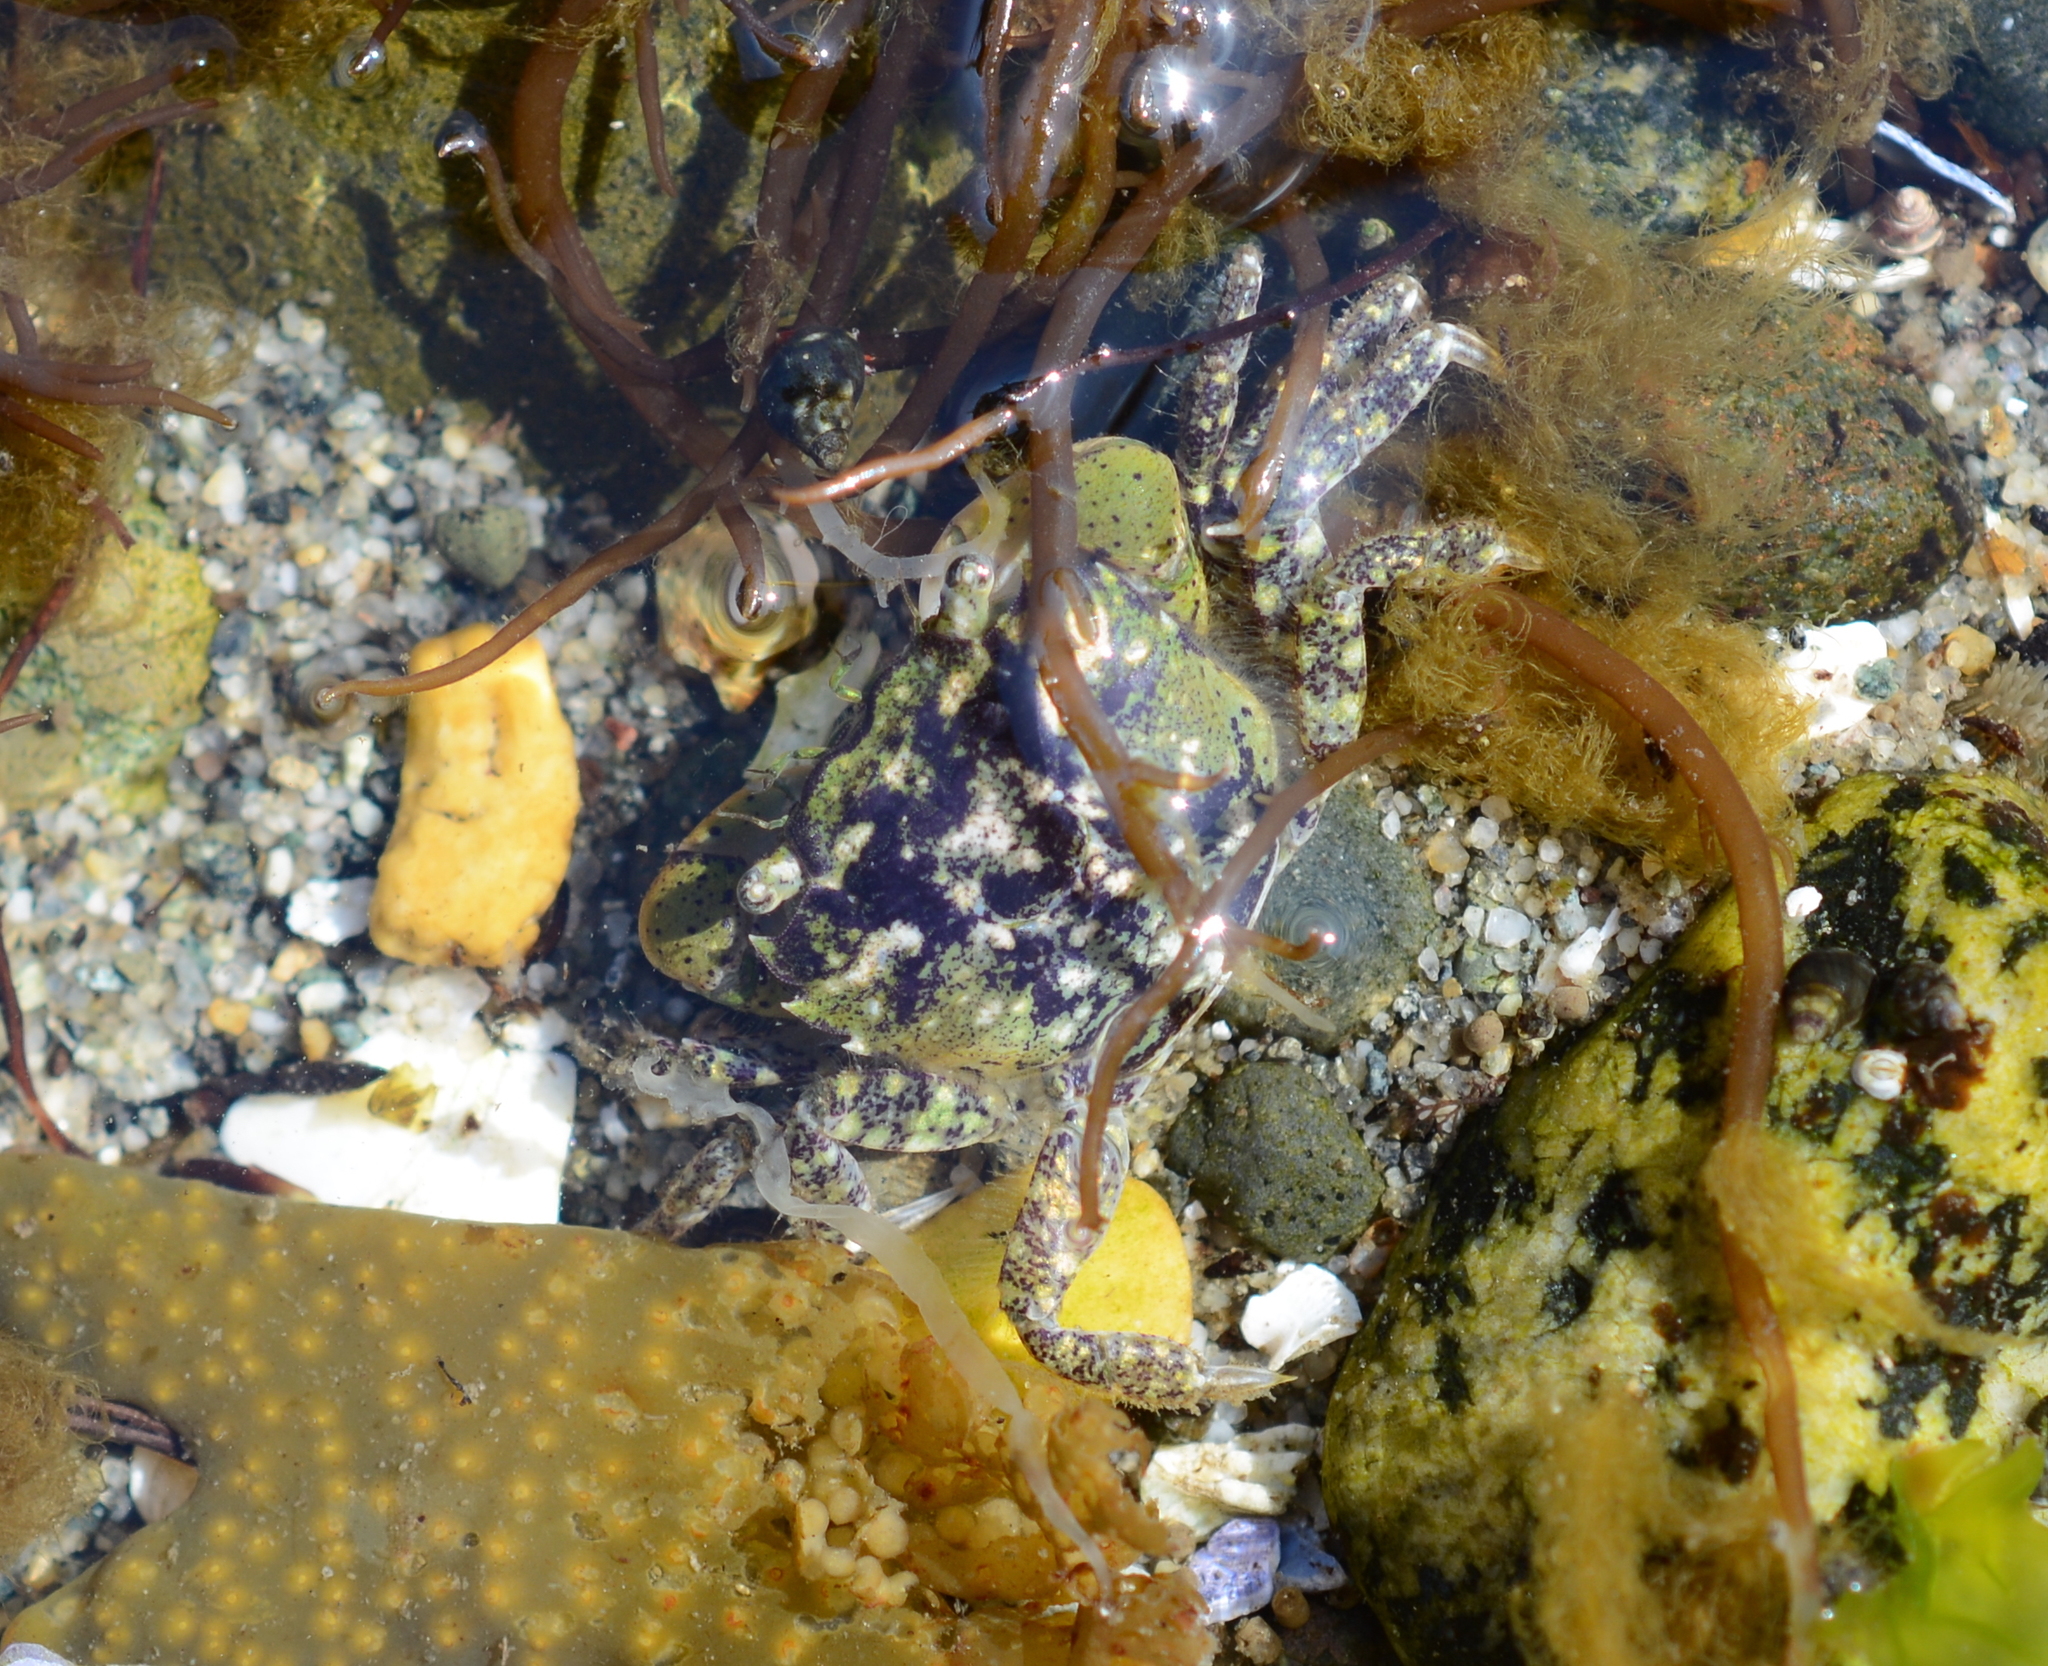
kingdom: Animalia
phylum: Arthropoda
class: Malacostraca
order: Decapoda
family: Varunidae
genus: Hemigrapsus
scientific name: Hemigrapsus oregonensis
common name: Yellow shore crab
